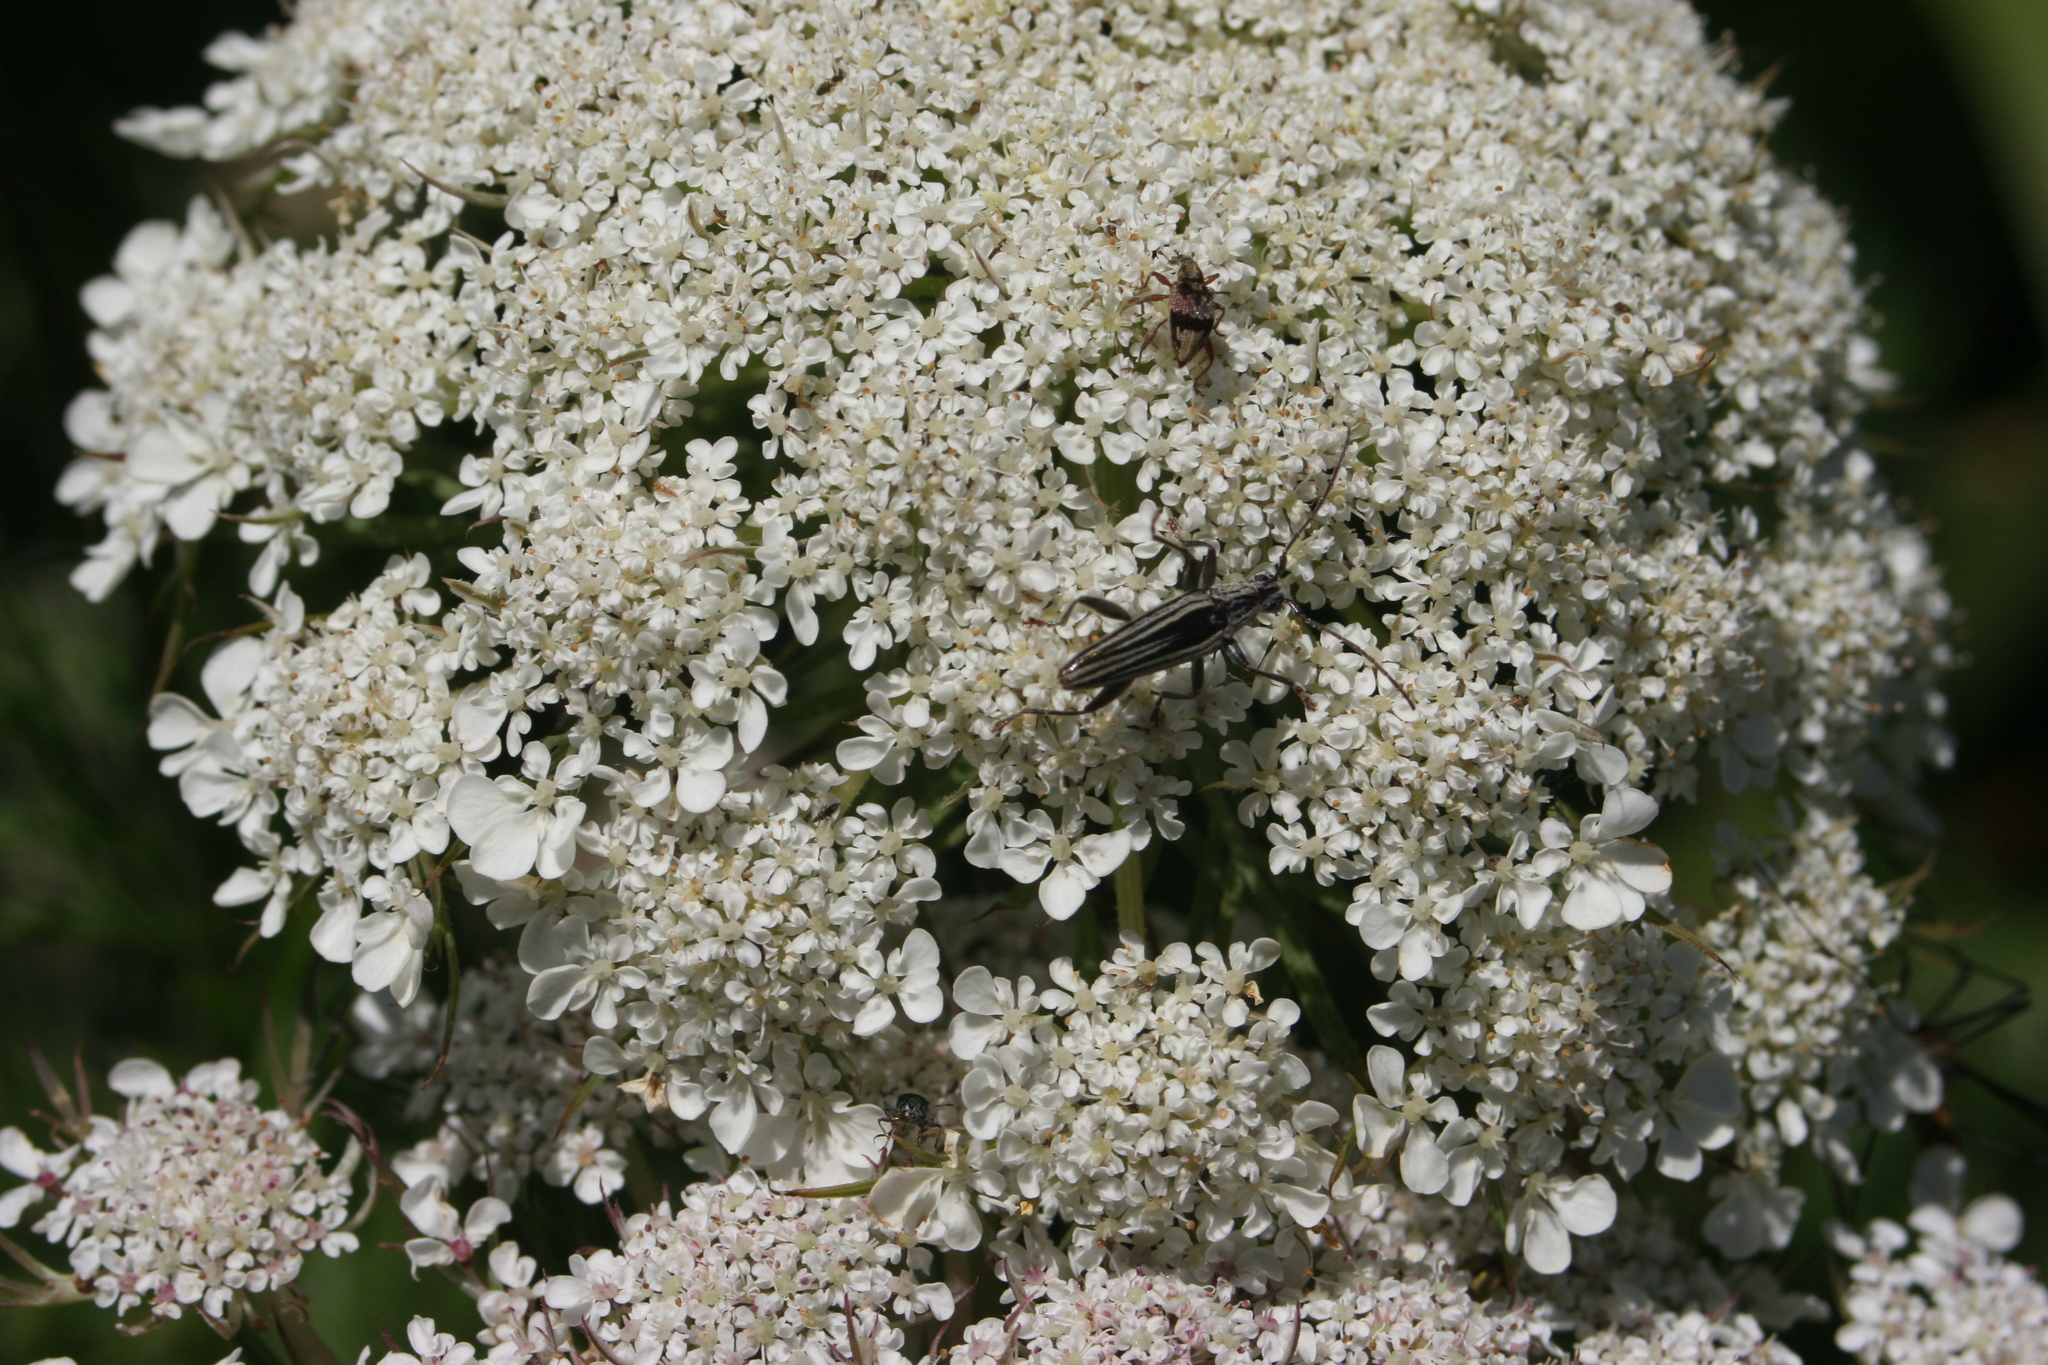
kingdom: Animalia
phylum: Arthropoda
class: Insecta
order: Coleoptera
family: Cerambycidae
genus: Coptomma
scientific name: Coptomma sulcatum
